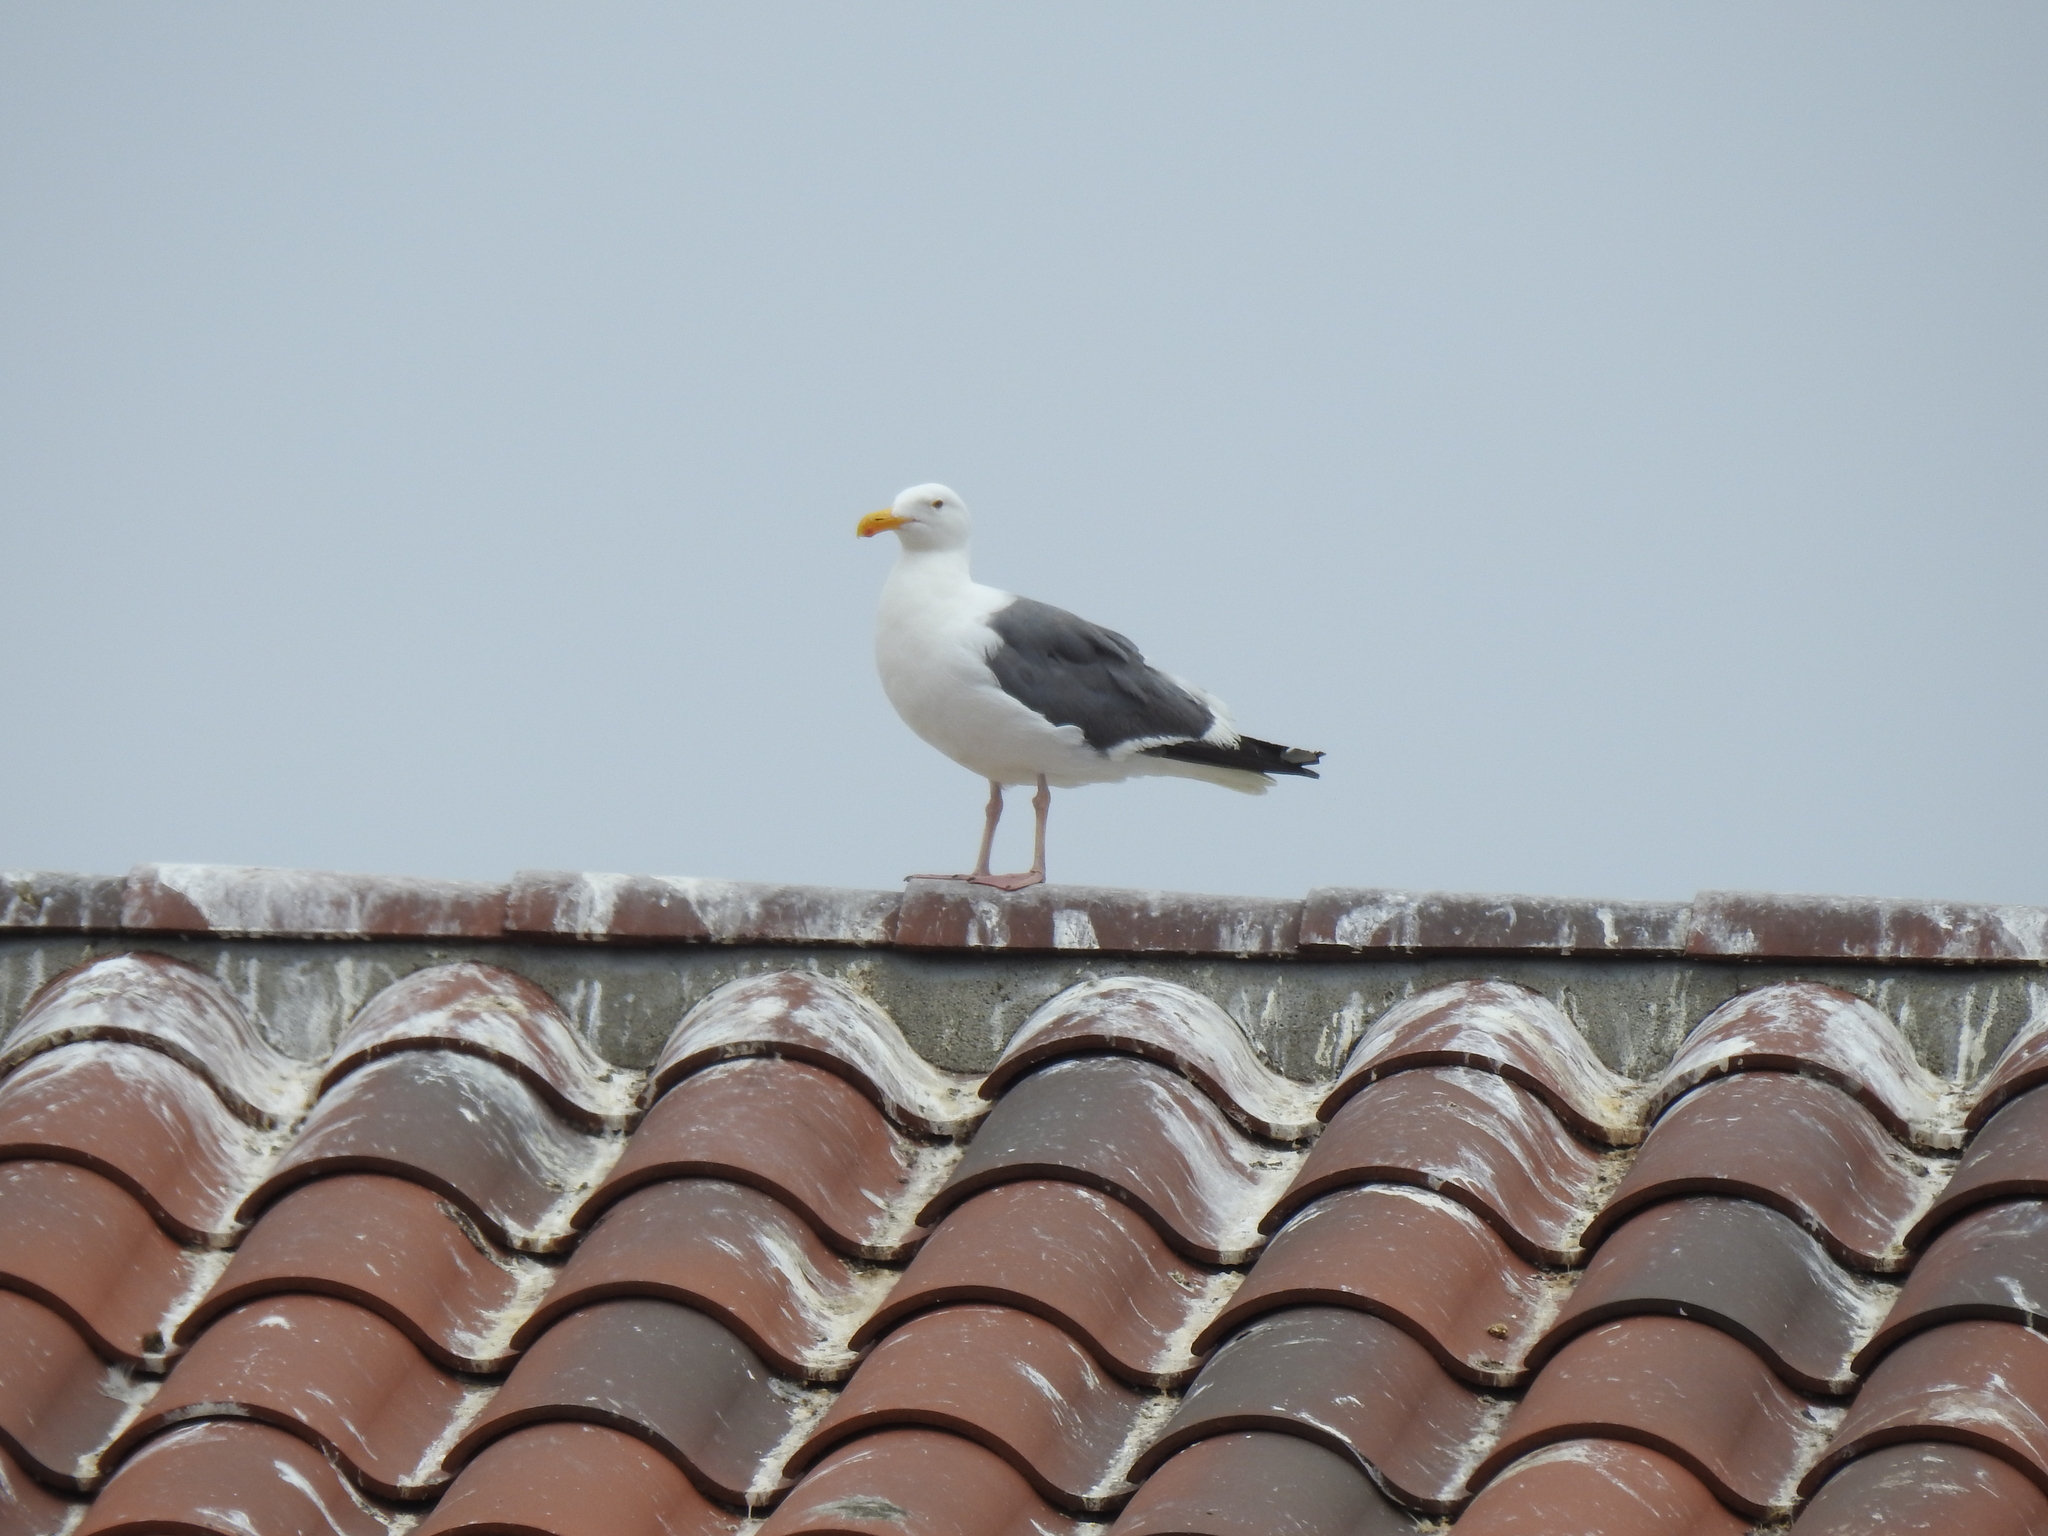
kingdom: Animalia
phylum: Chordata
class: Aves
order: Charadriiformes
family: Laridae
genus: Larus
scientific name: Larus occidentalis
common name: Western gull
